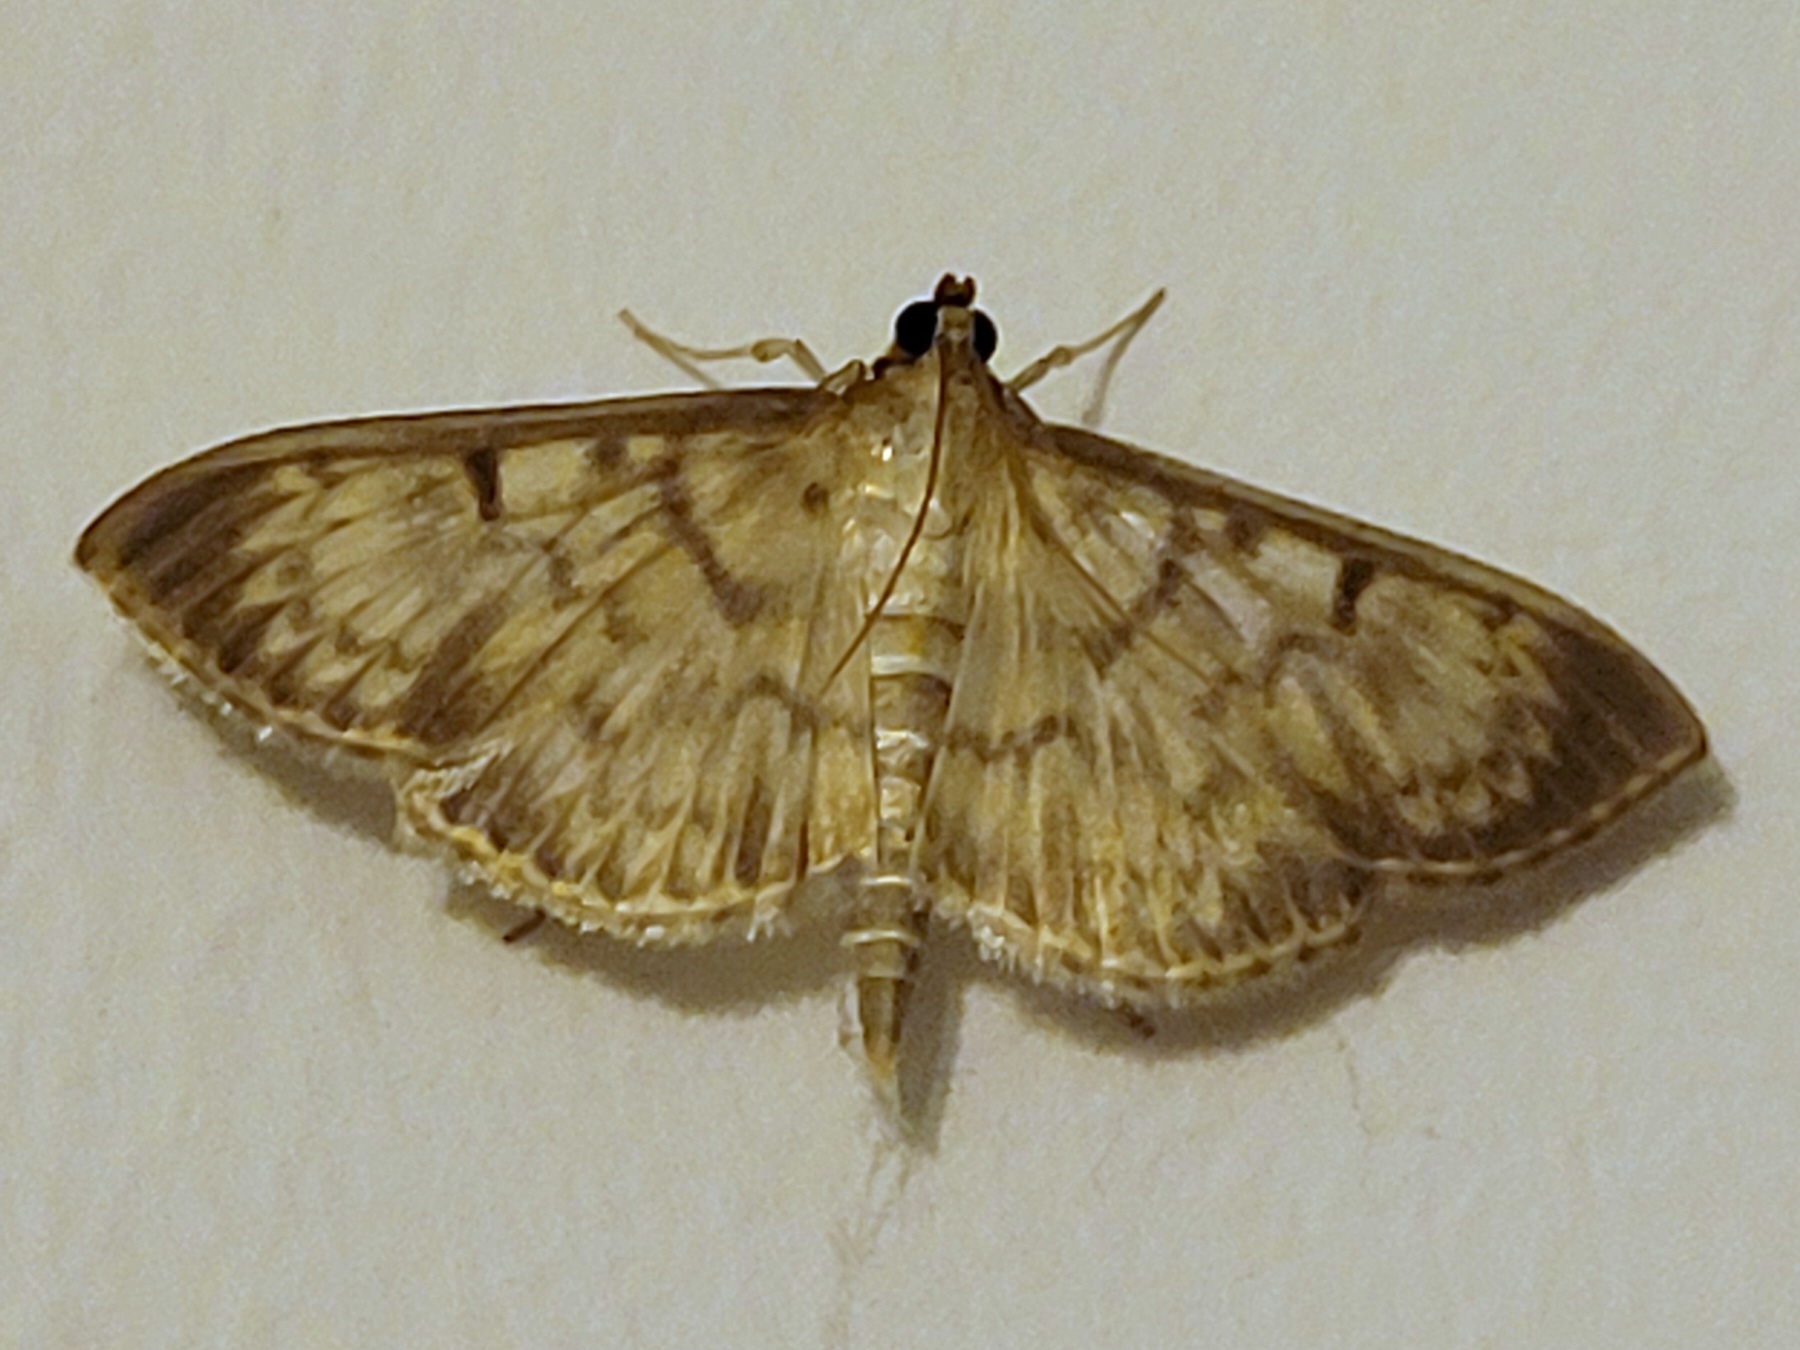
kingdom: Animalia
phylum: Arthropoda
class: Insecta
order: Lepidoptera
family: Crambidae
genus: Patania
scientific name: Patania ruralis
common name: Mother of pearl
